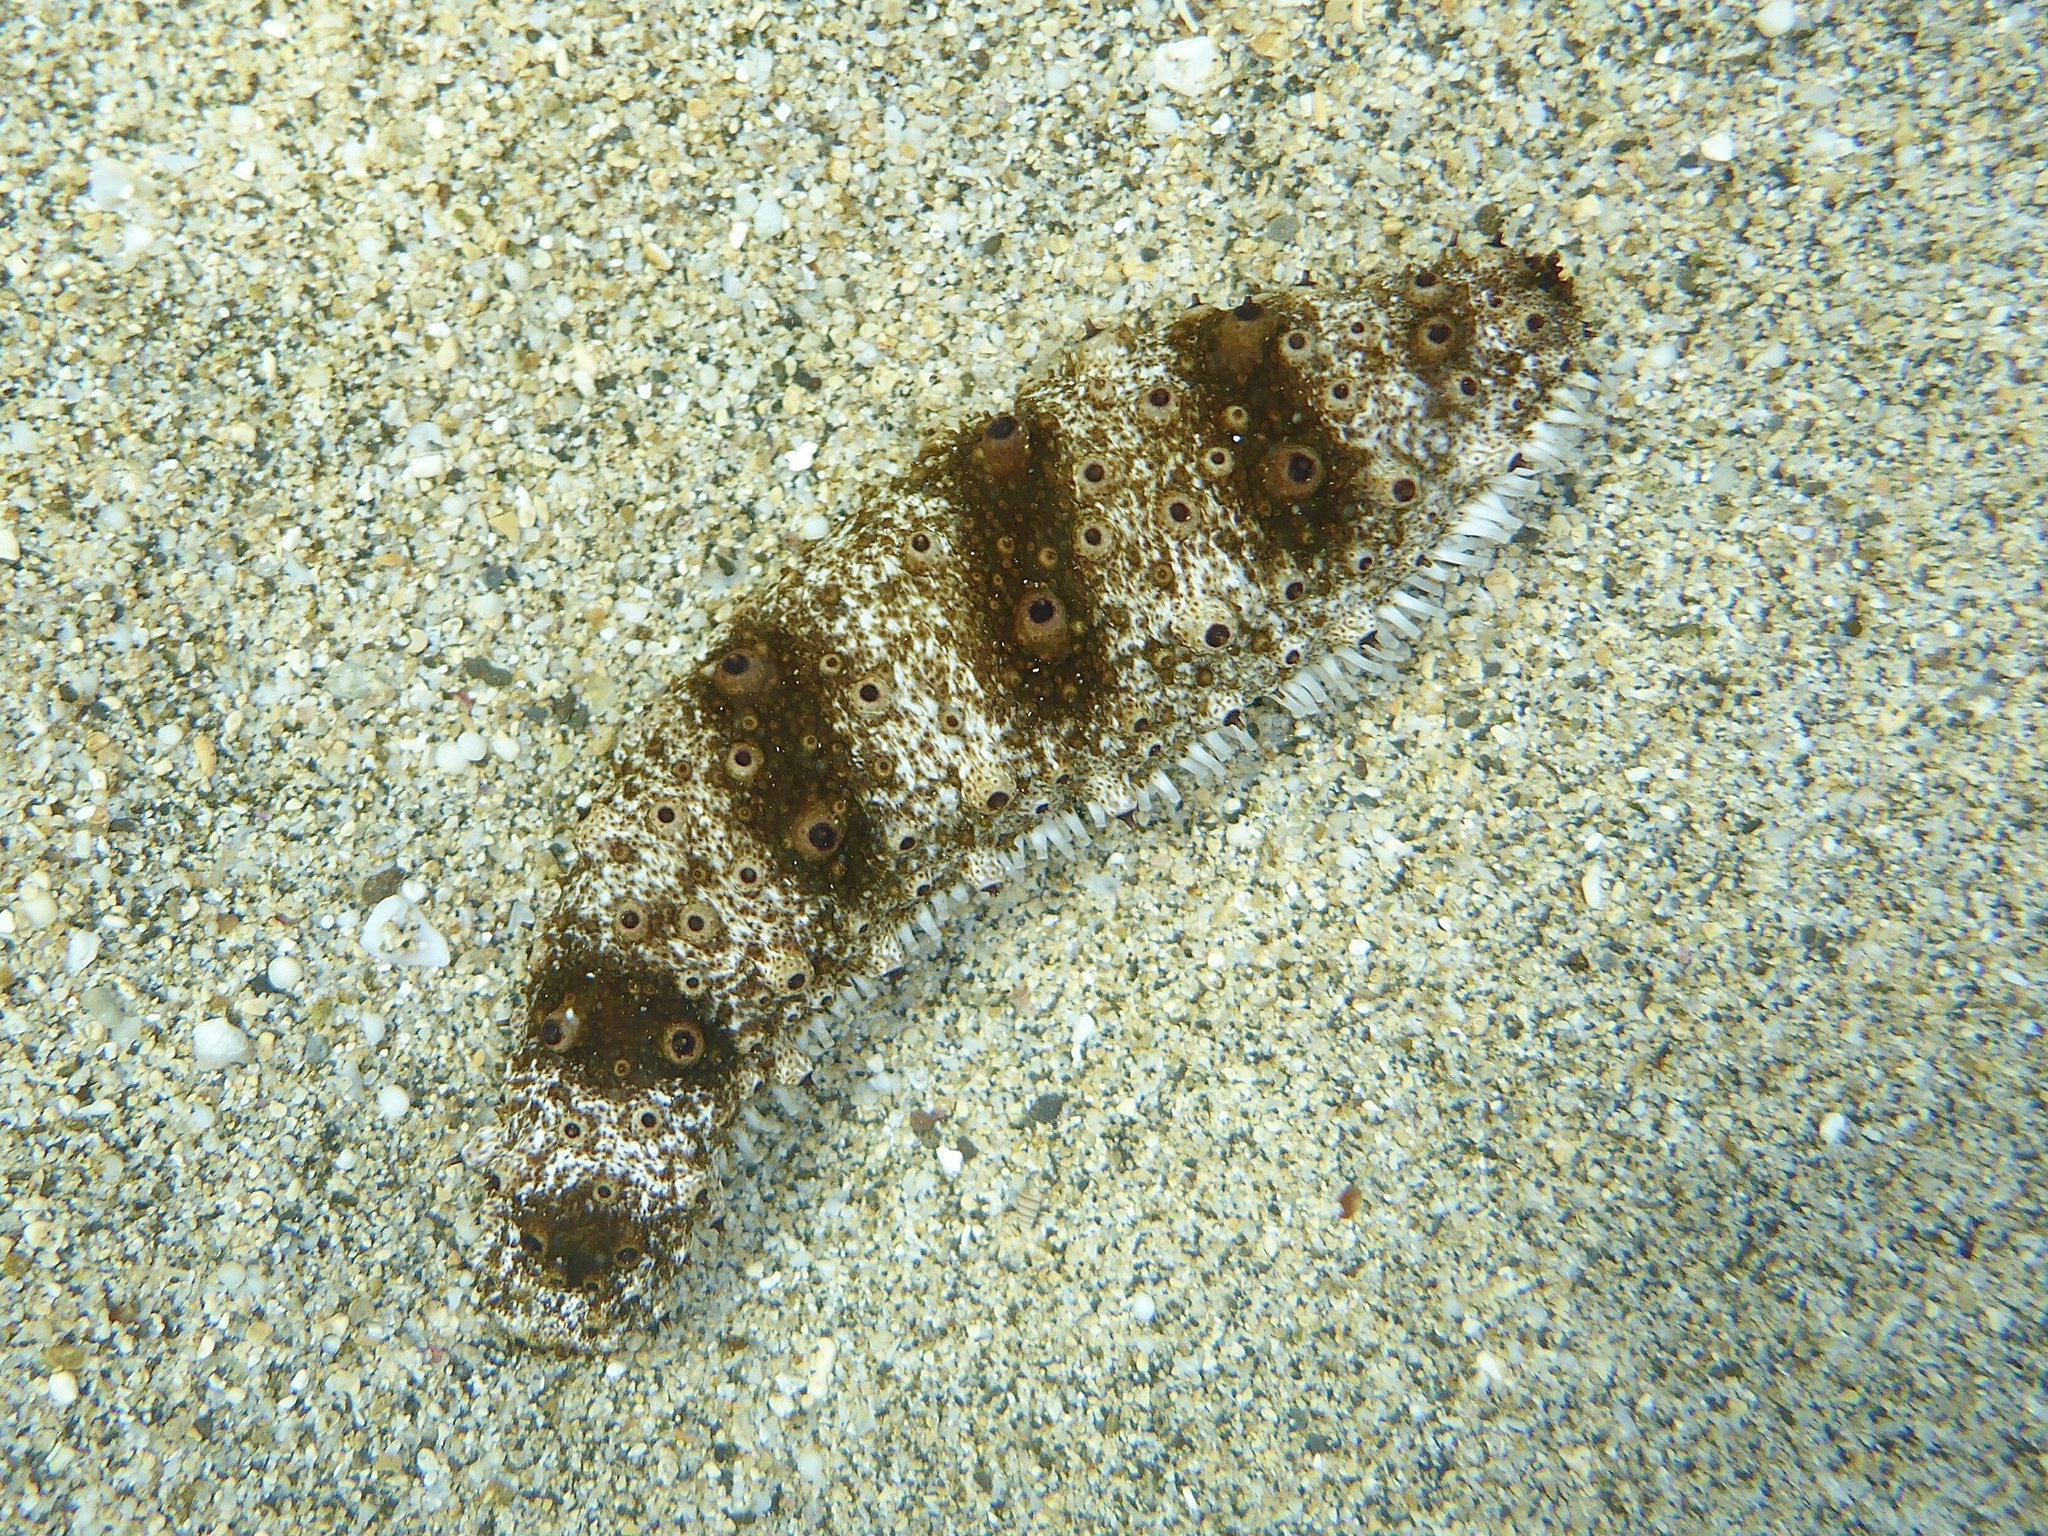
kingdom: Animalia
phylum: Echinodermata
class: Holothuroidea
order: Holothuriida
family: Holothuriidae
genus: Holothuria
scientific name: Holothuria pervicax
